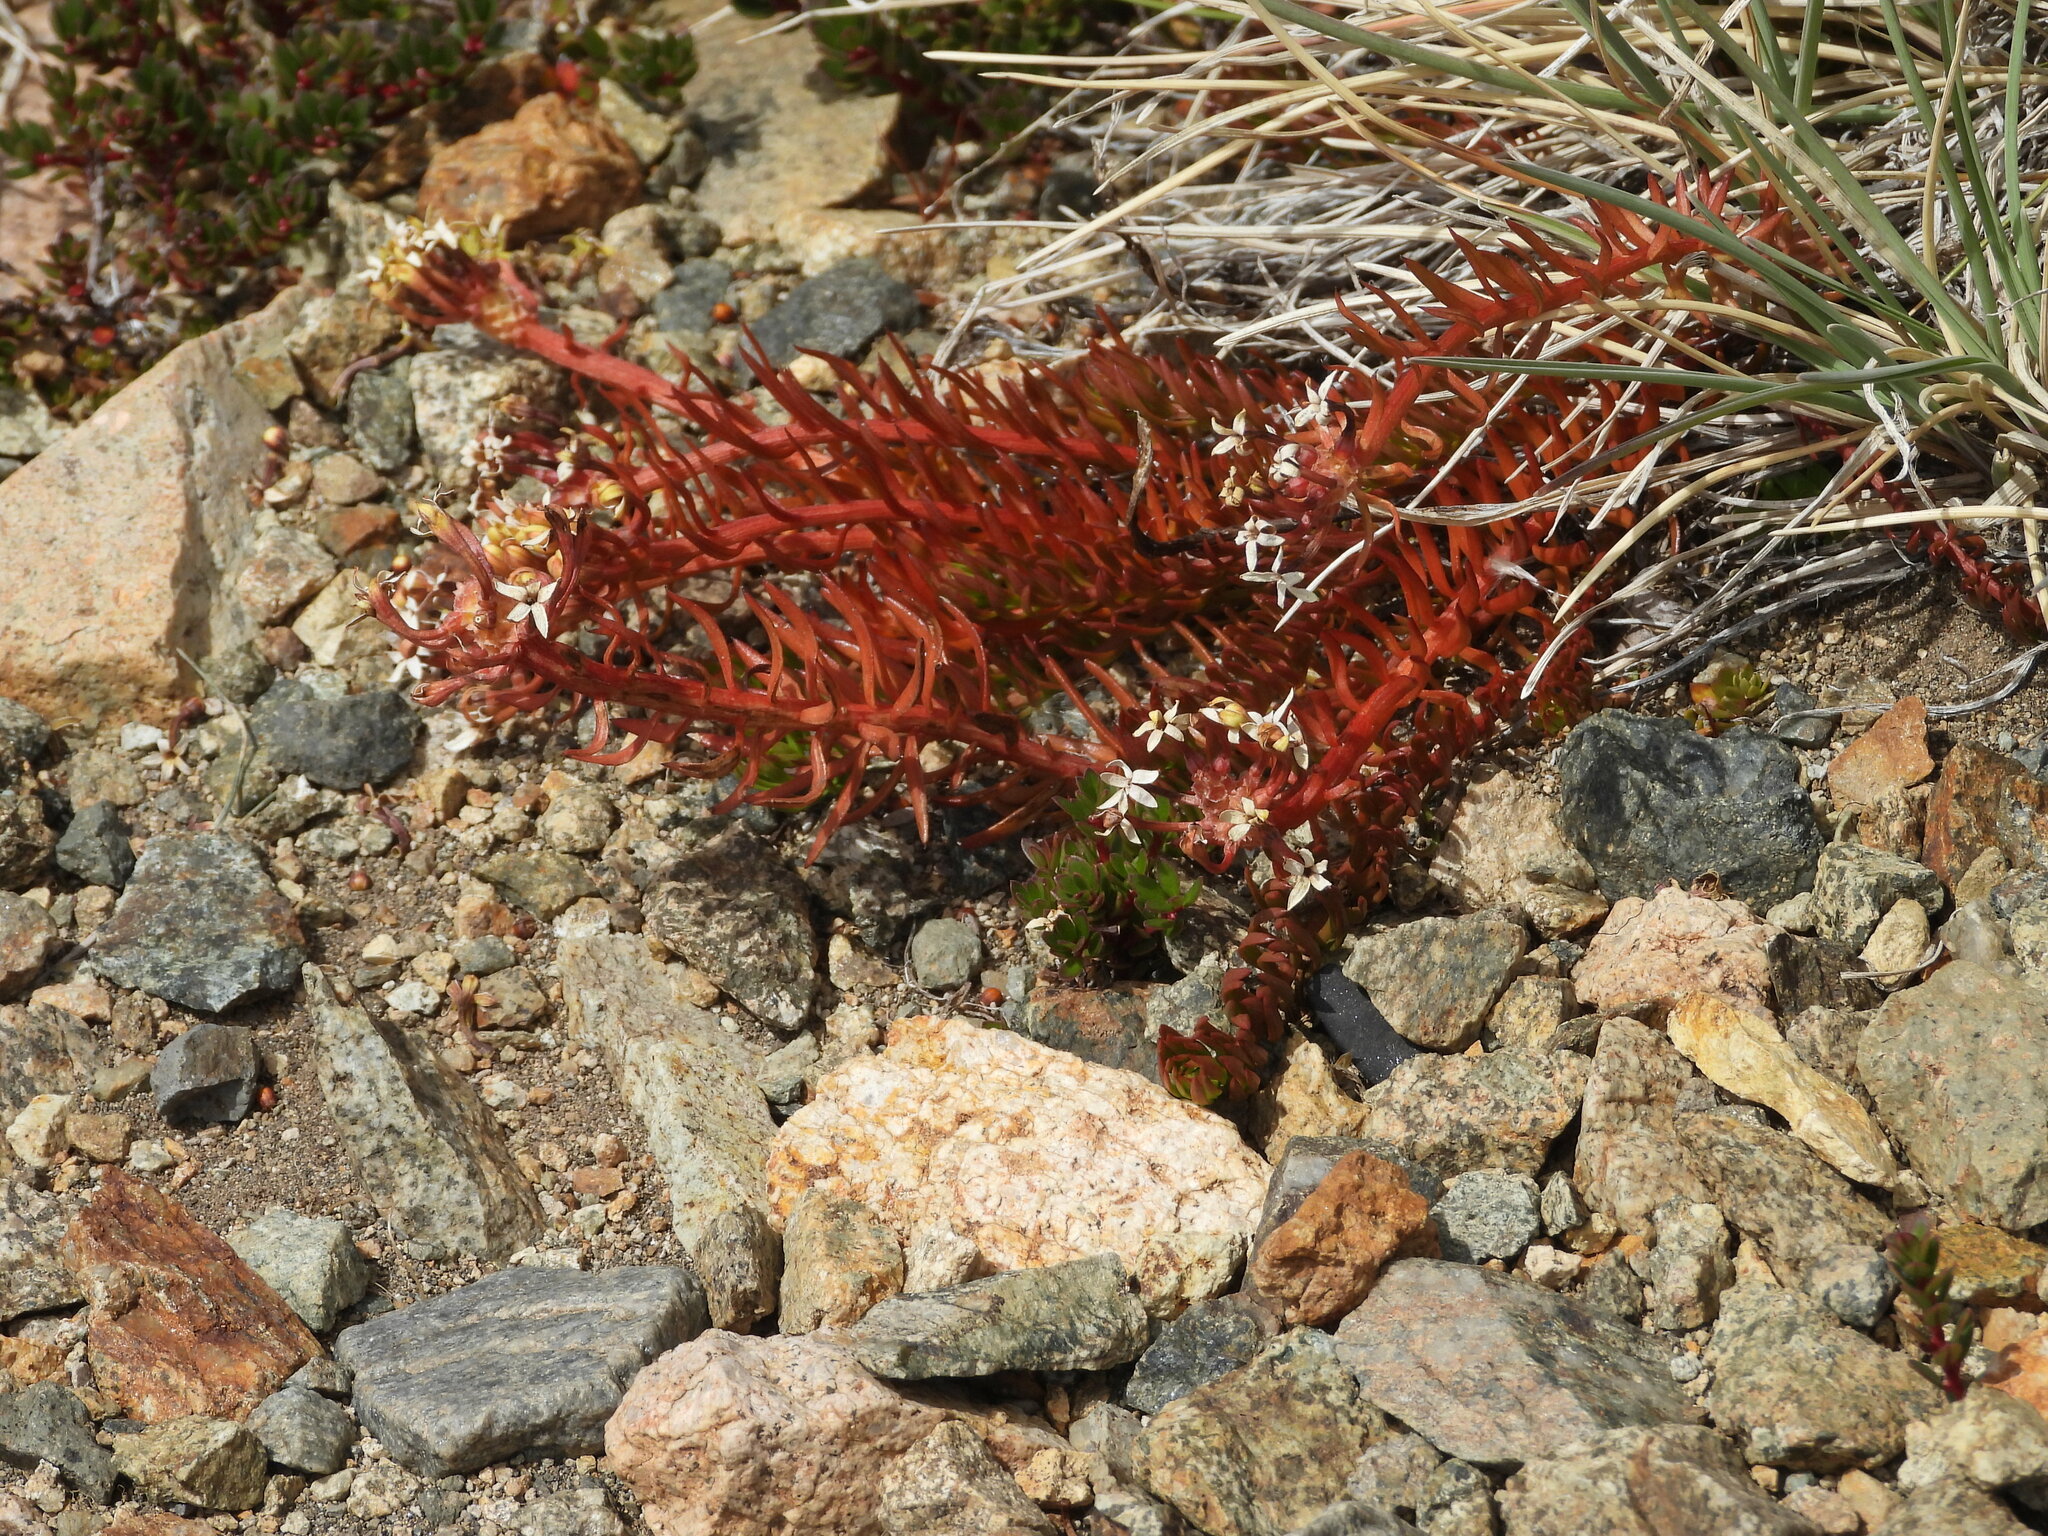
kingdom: Plantae
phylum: Tracheophyta
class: Magnoliopsida
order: Santalales
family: Schoepfiaceae
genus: Quinchamalium
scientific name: Quinchamalium chilense
